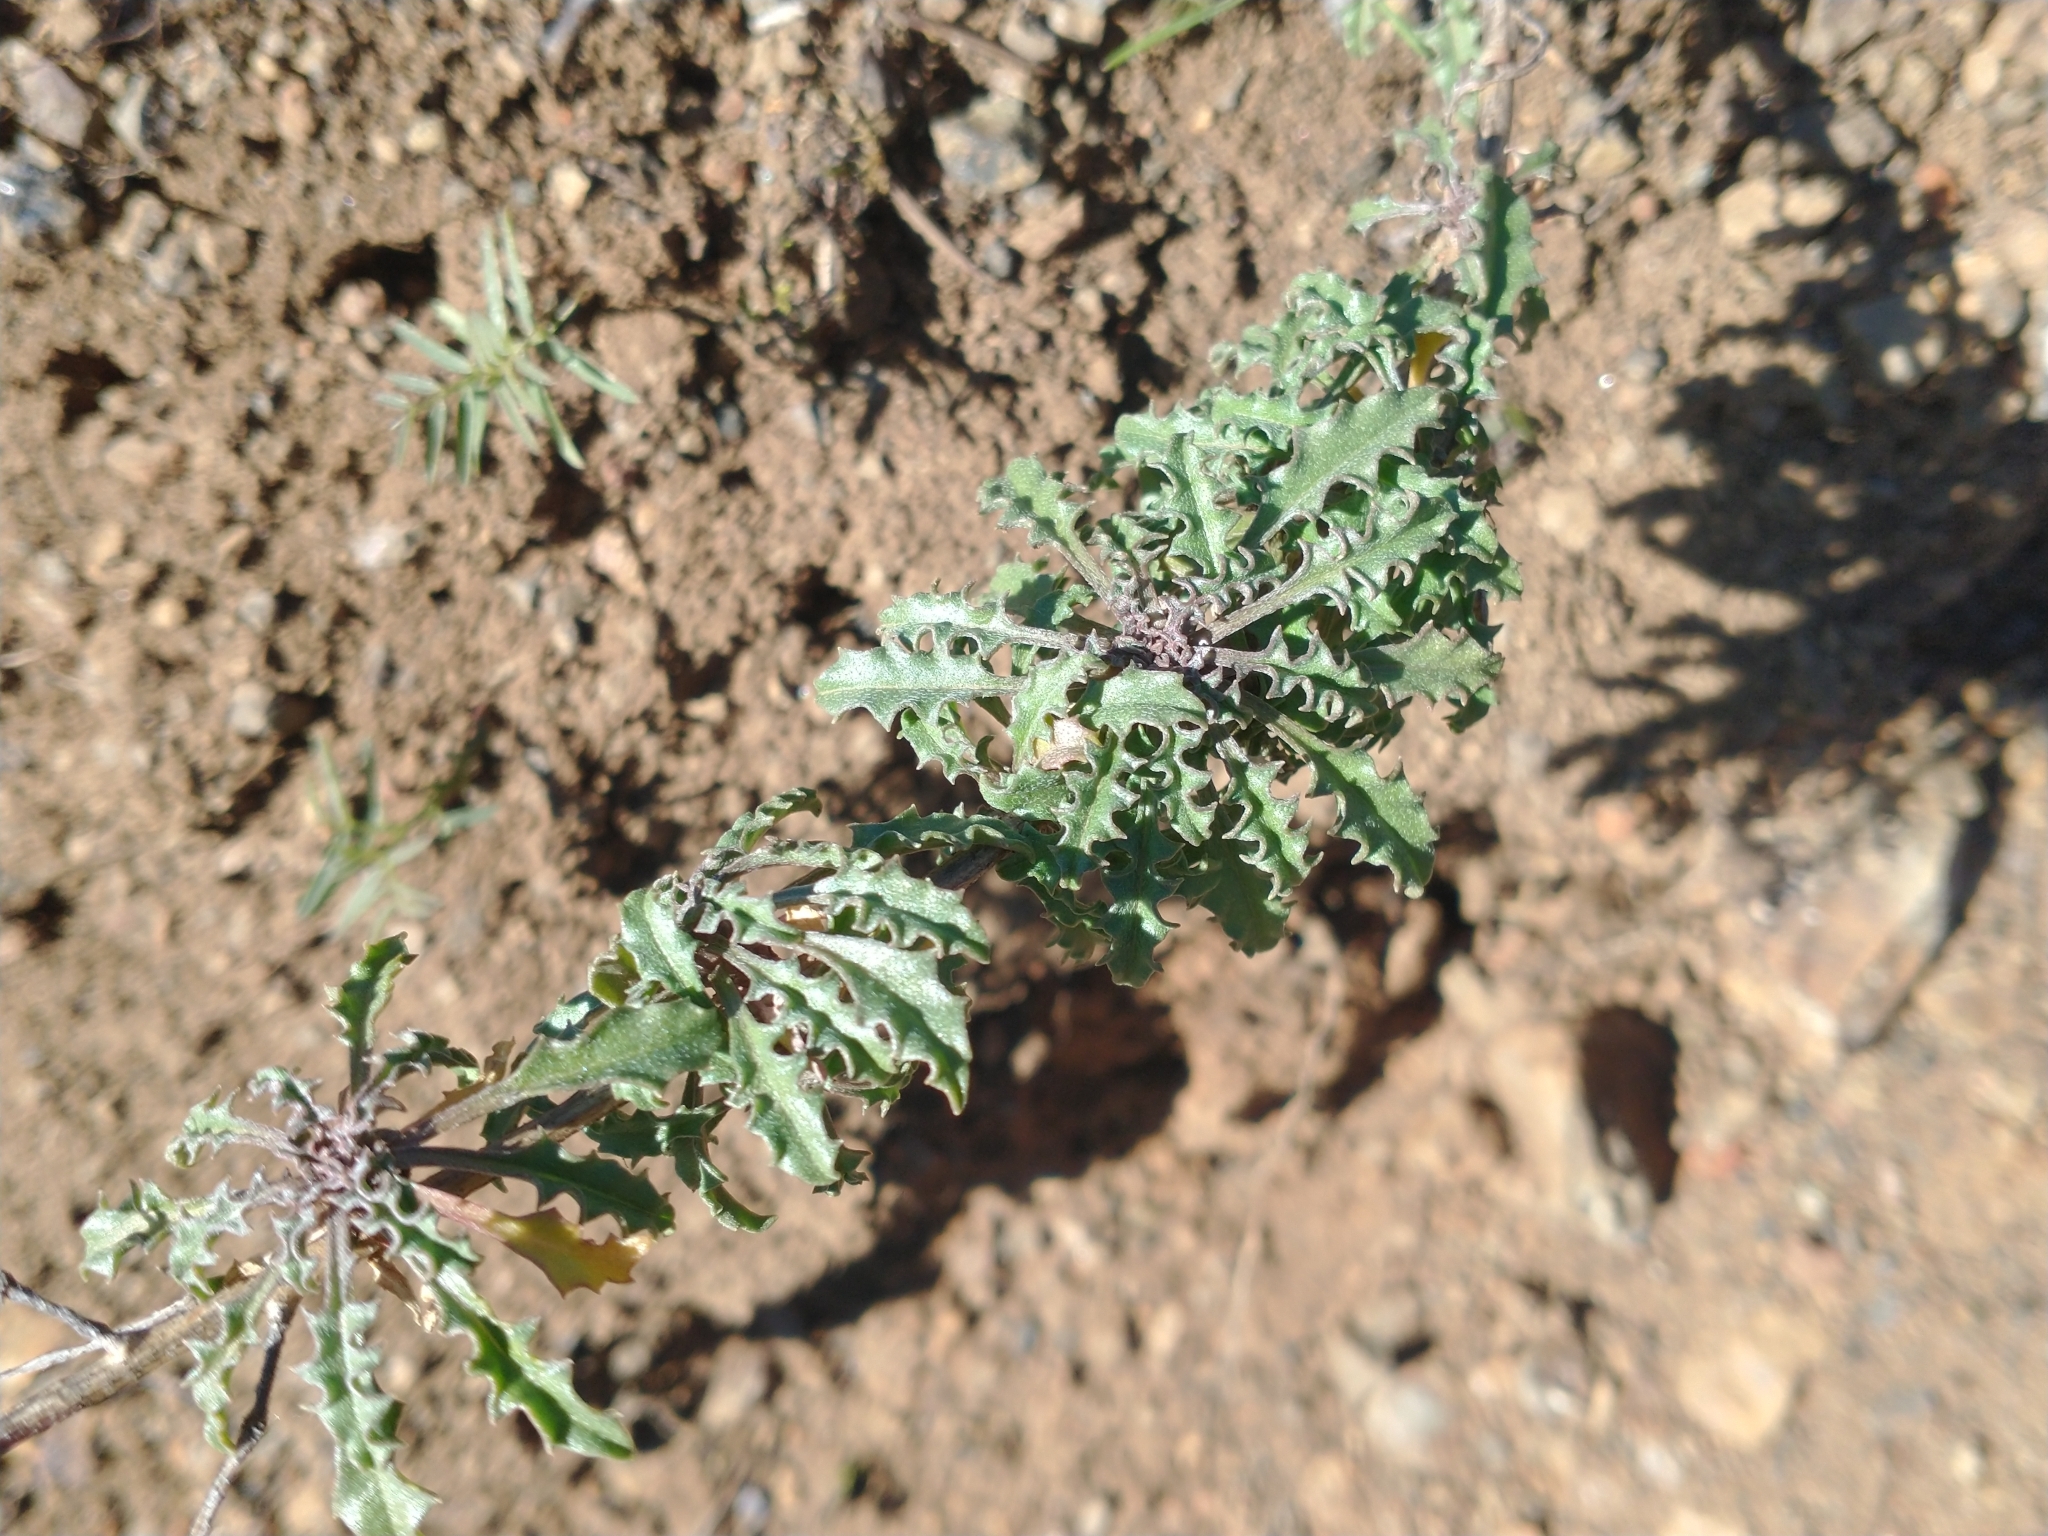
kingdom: Plantae
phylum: Tracheophyta
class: Magnoliopsida
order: Brassicales
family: Brassicaceae
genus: Erysimum
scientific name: Erysimum capitatum
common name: Western wallflower
